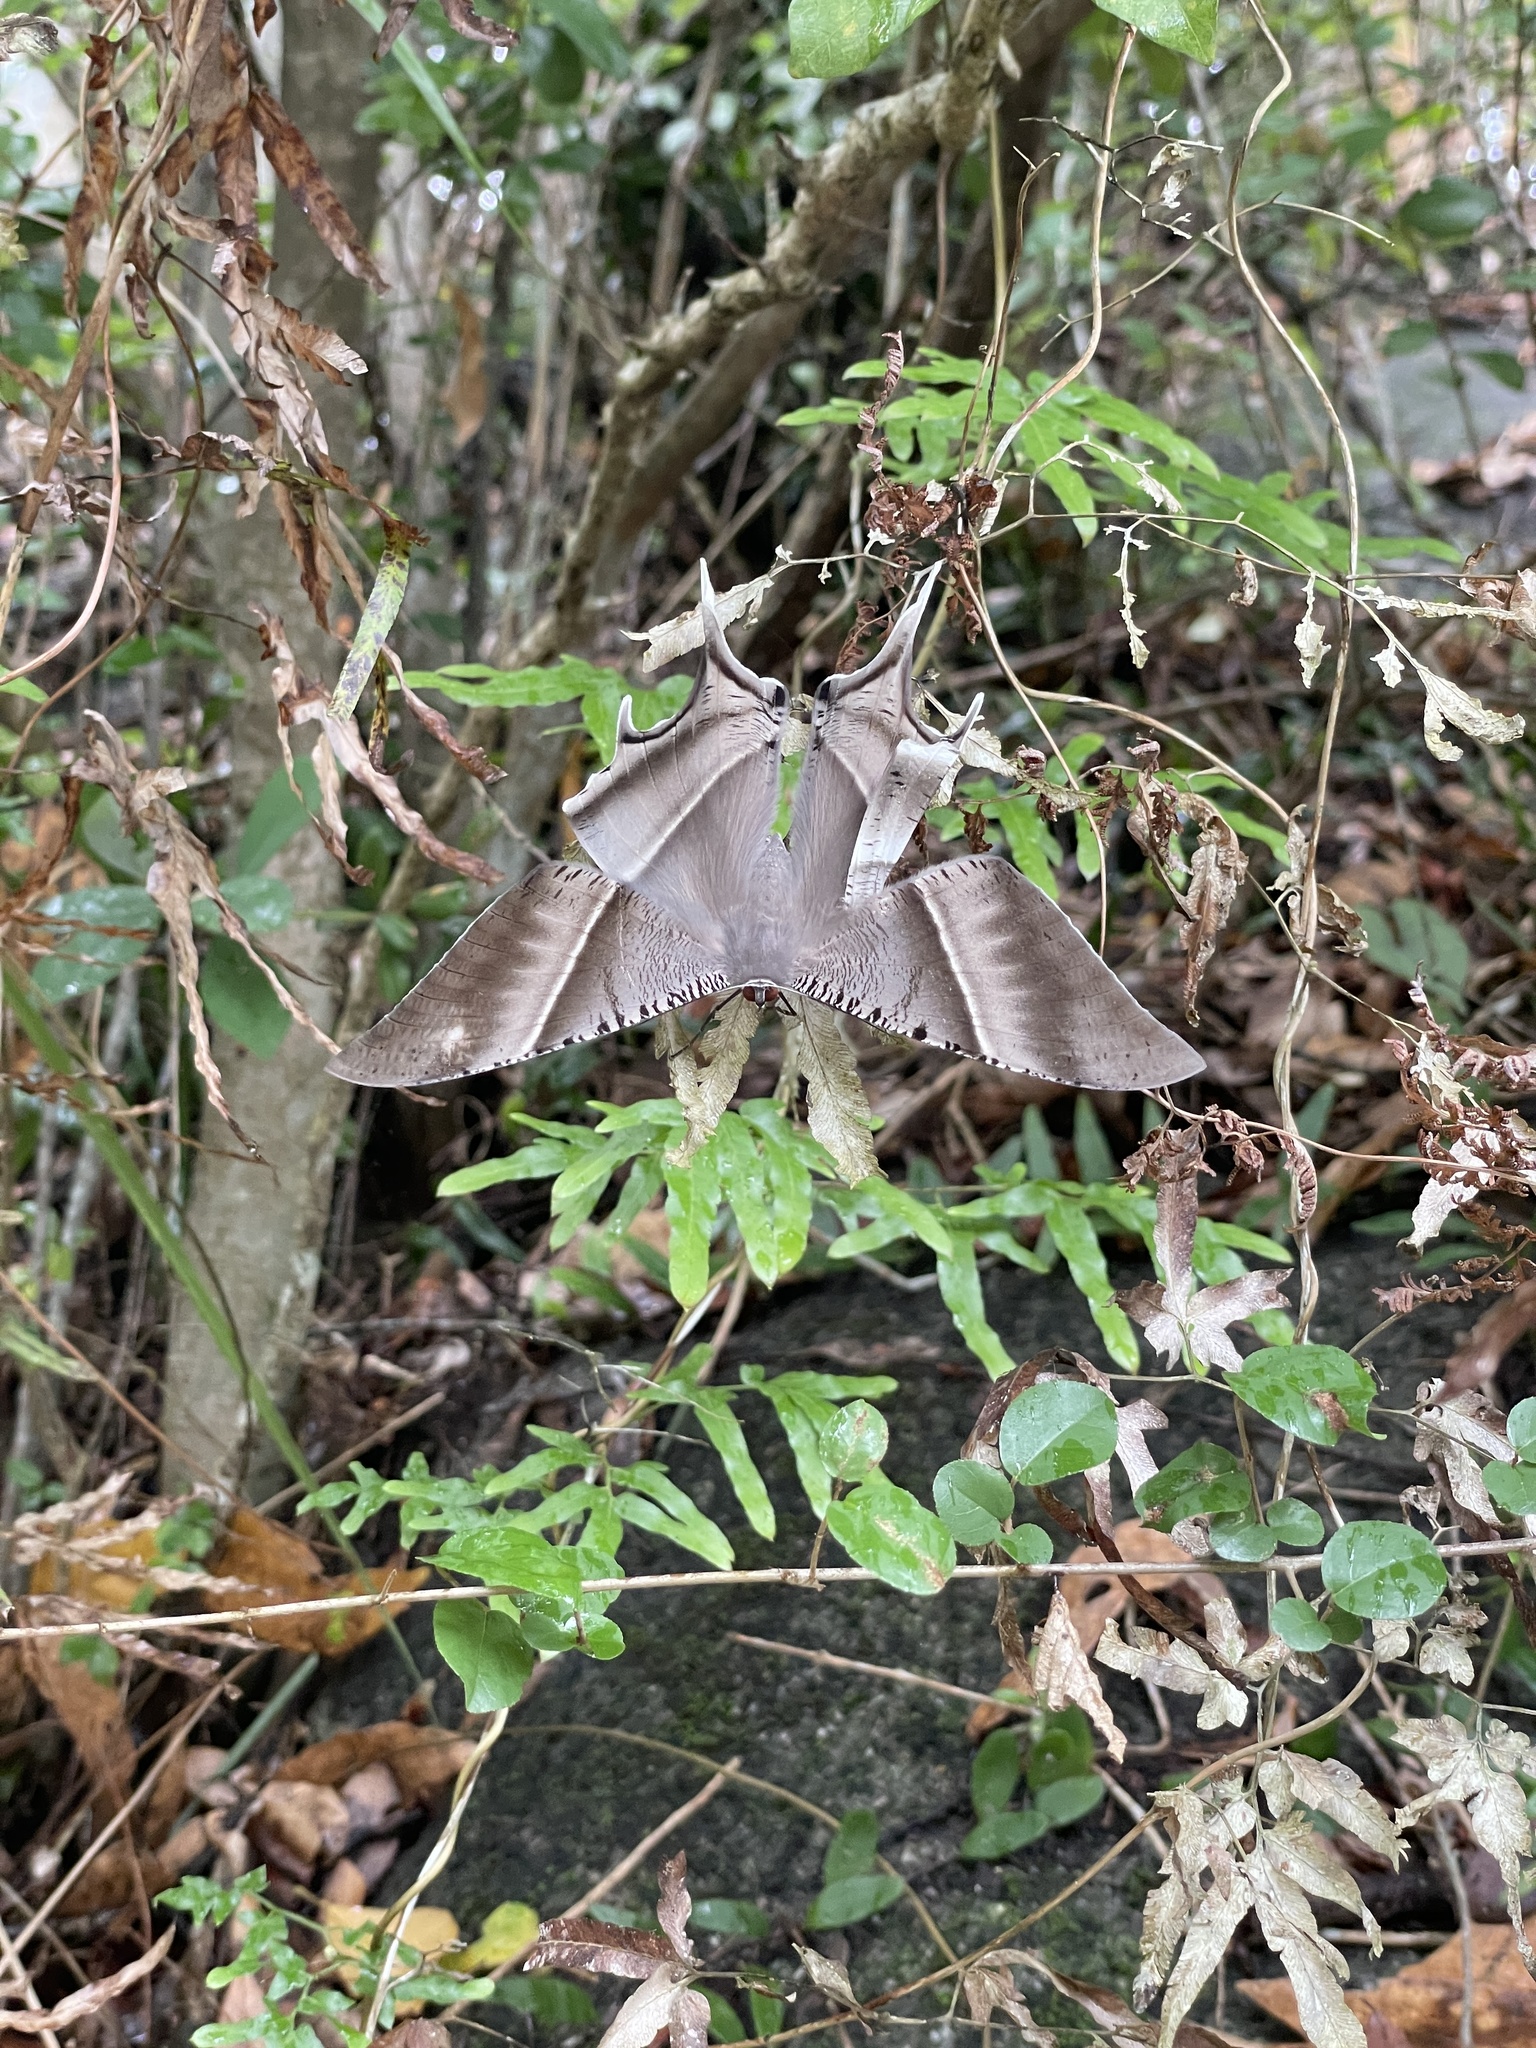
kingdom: Animalia
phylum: Arthropoda
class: Insecta
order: Lepidoptera
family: Uraniidae
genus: Lyssa
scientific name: Lyssa zampa
